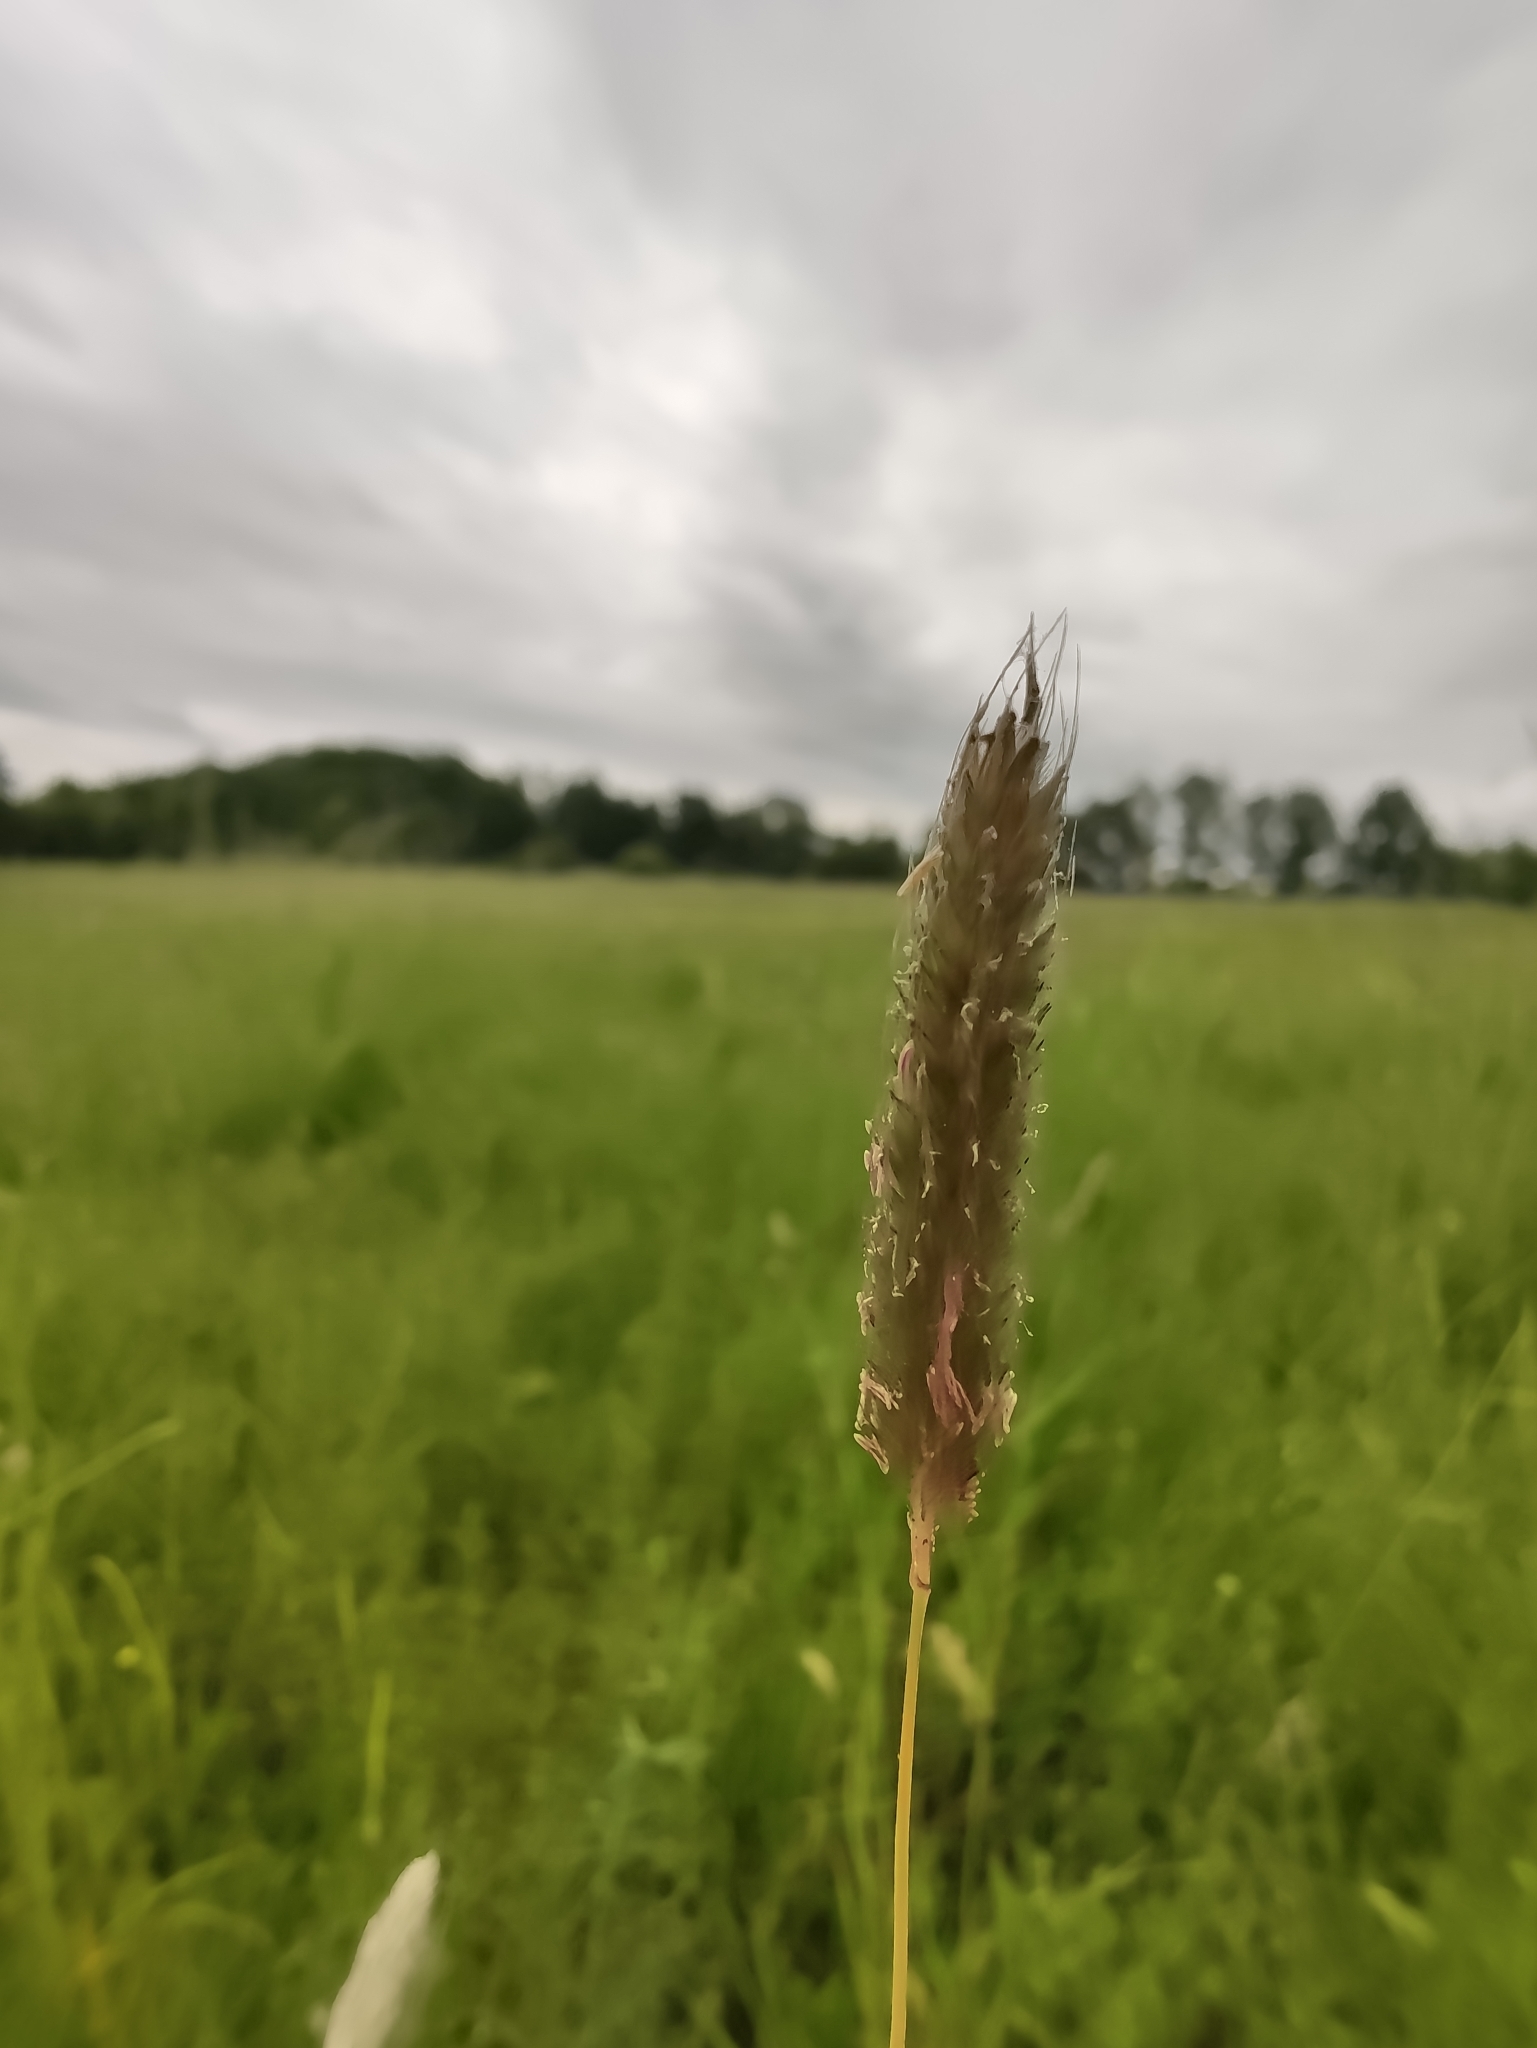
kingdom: Plantae
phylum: Tracheophyta
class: Liliopsida
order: Poales
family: Poaceae
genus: Alopecurus
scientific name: Alopecurus pratensis
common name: Meadow foxtail
